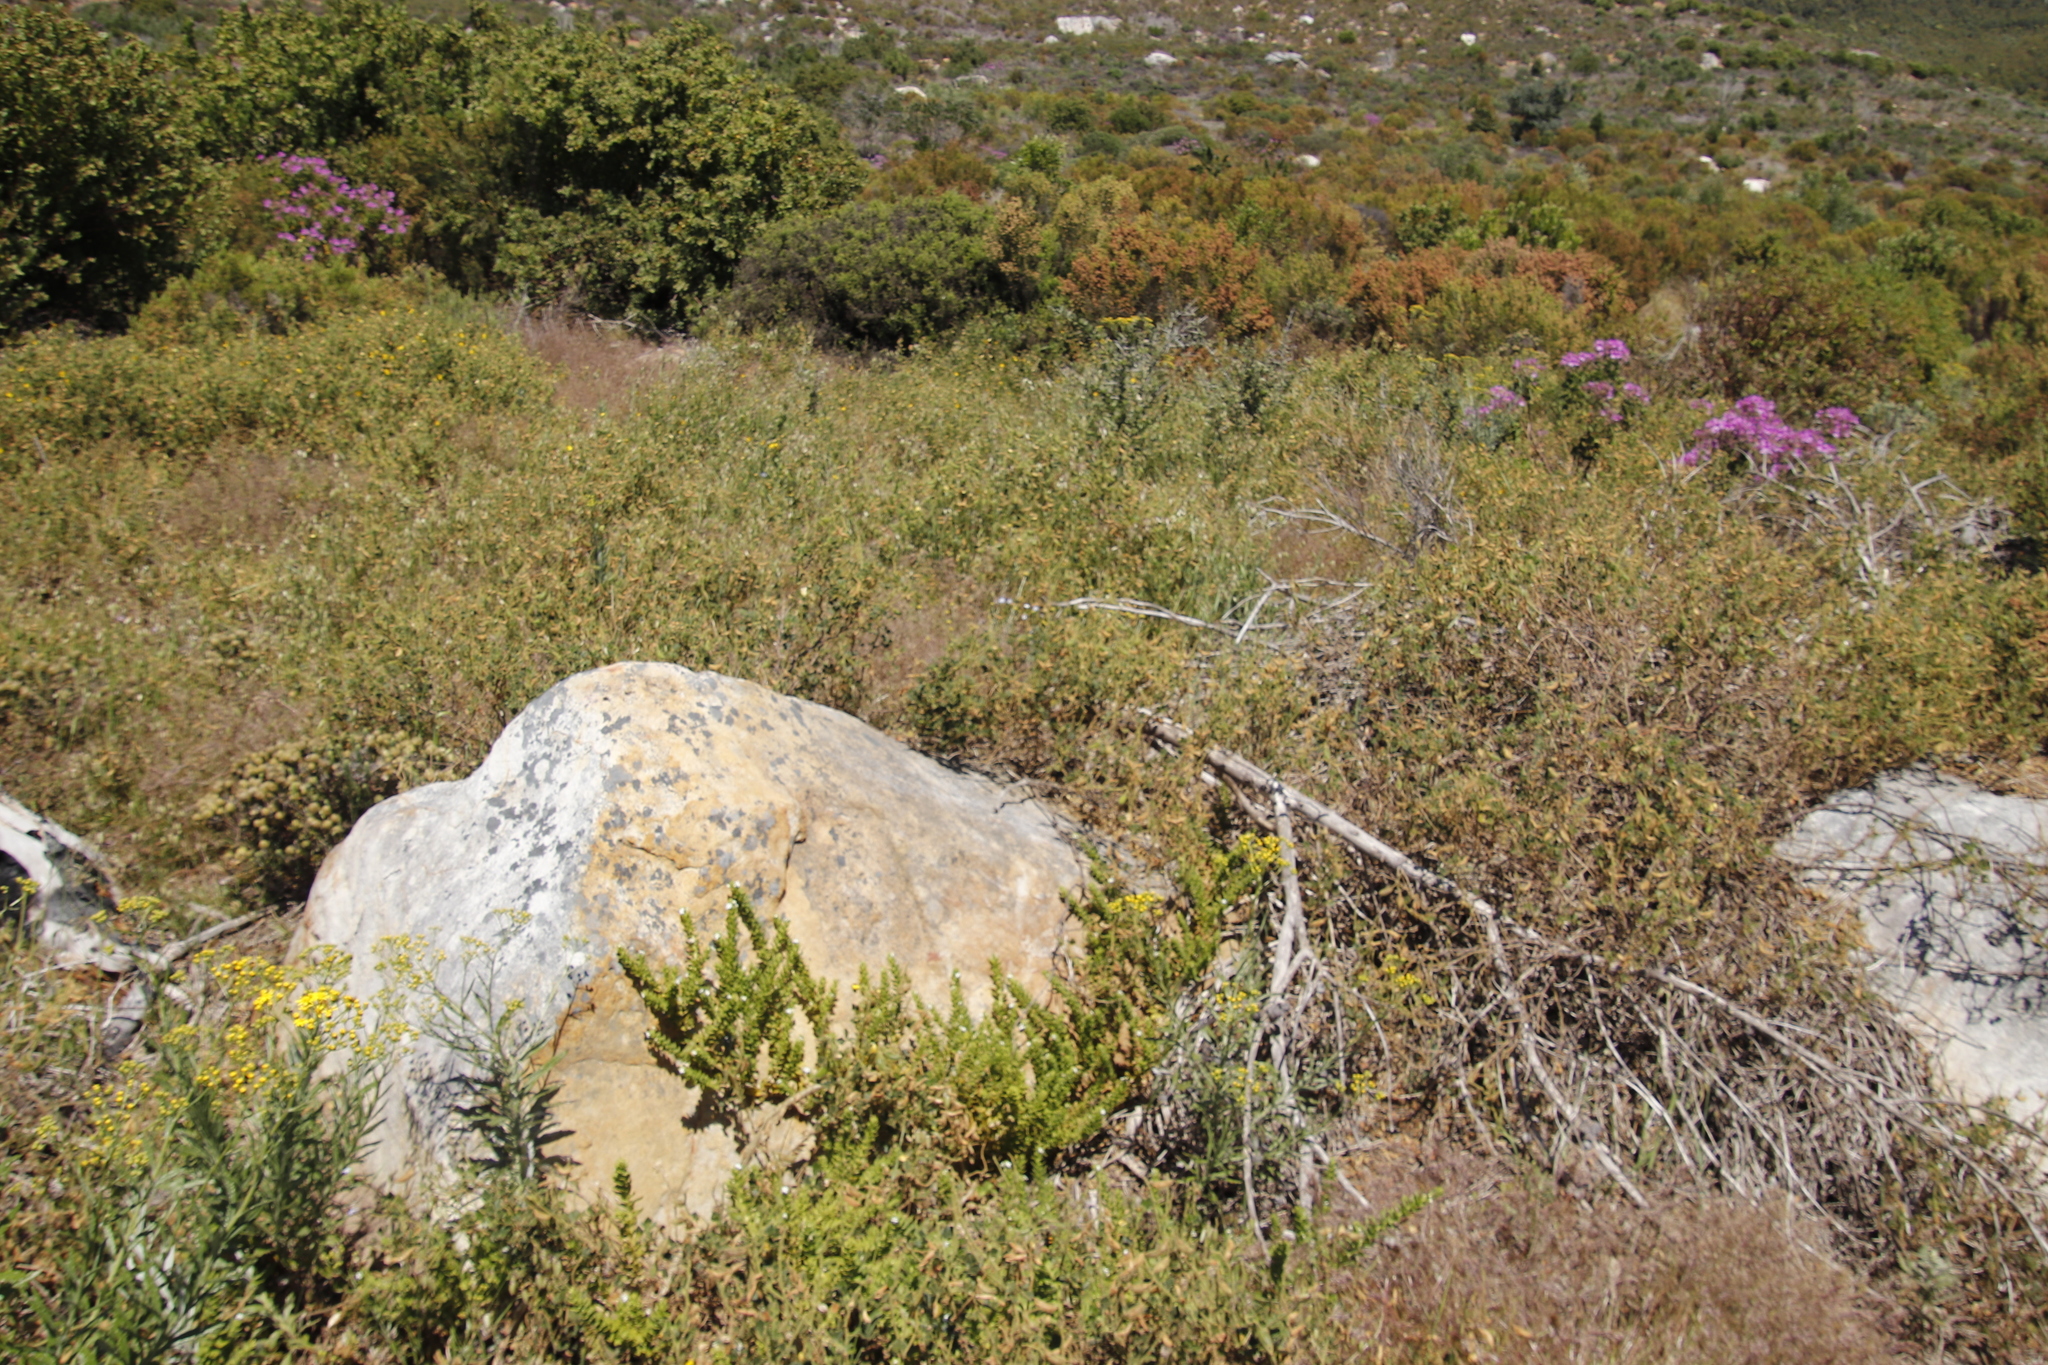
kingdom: Plantae
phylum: Tracheophyta
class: Magnoliopsida
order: Fabales
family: Fabaceae
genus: Bolusafra
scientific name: Bolusafra bituminosa
